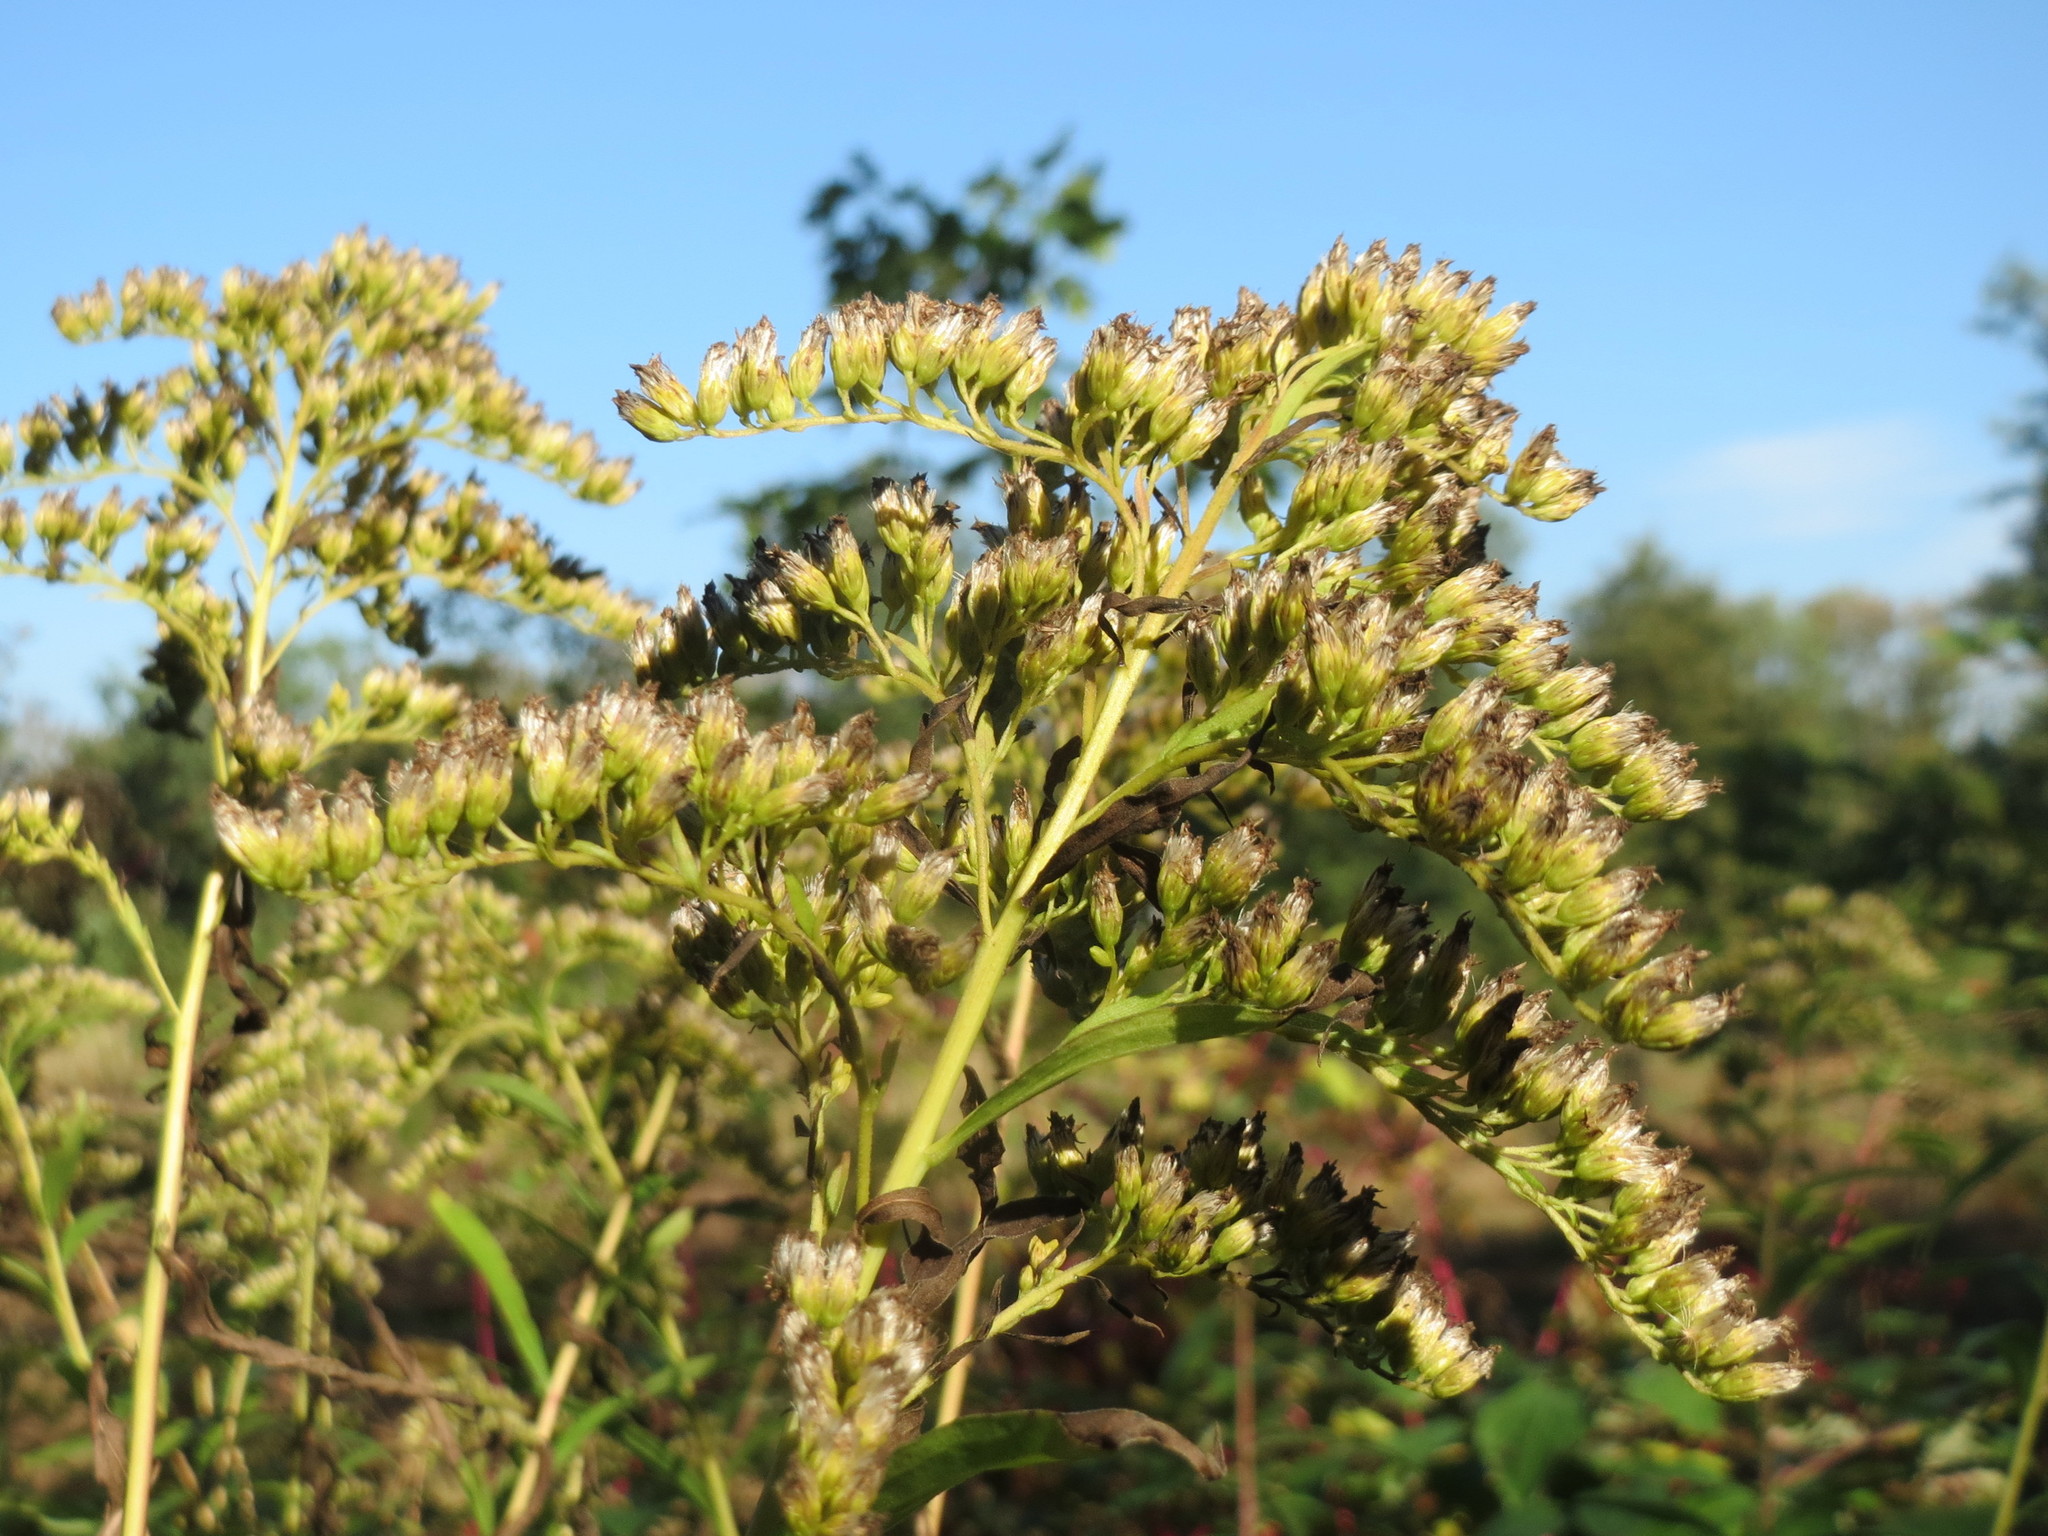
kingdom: Plantae
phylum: Tracheophyta
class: Magnoliopsida
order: Asterales
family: Asteraceae
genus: Solidago
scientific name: Solidago canadensis
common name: Canada goldenrod
